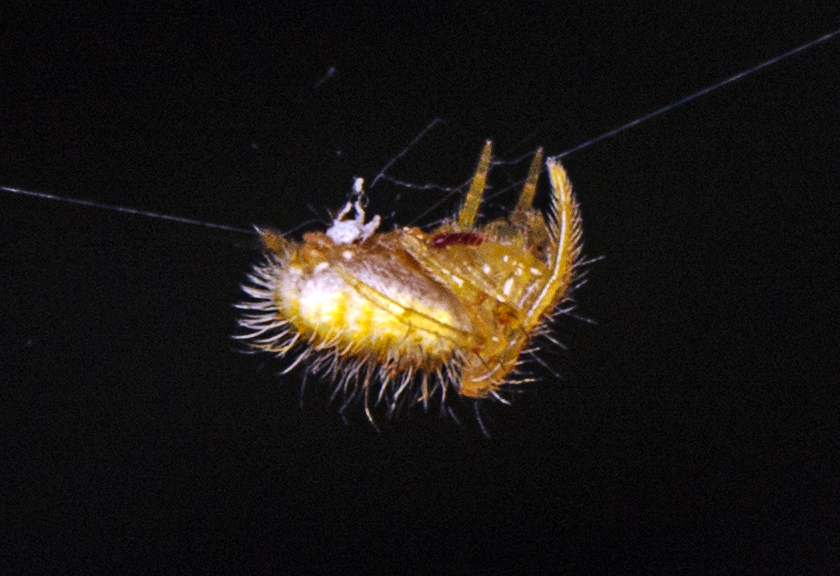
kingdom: Animalia
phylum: Arthropoda
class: Arachnida
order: Araneae
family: Araneidae
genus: Poecilopachys
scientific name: Poecilopachys australasia
